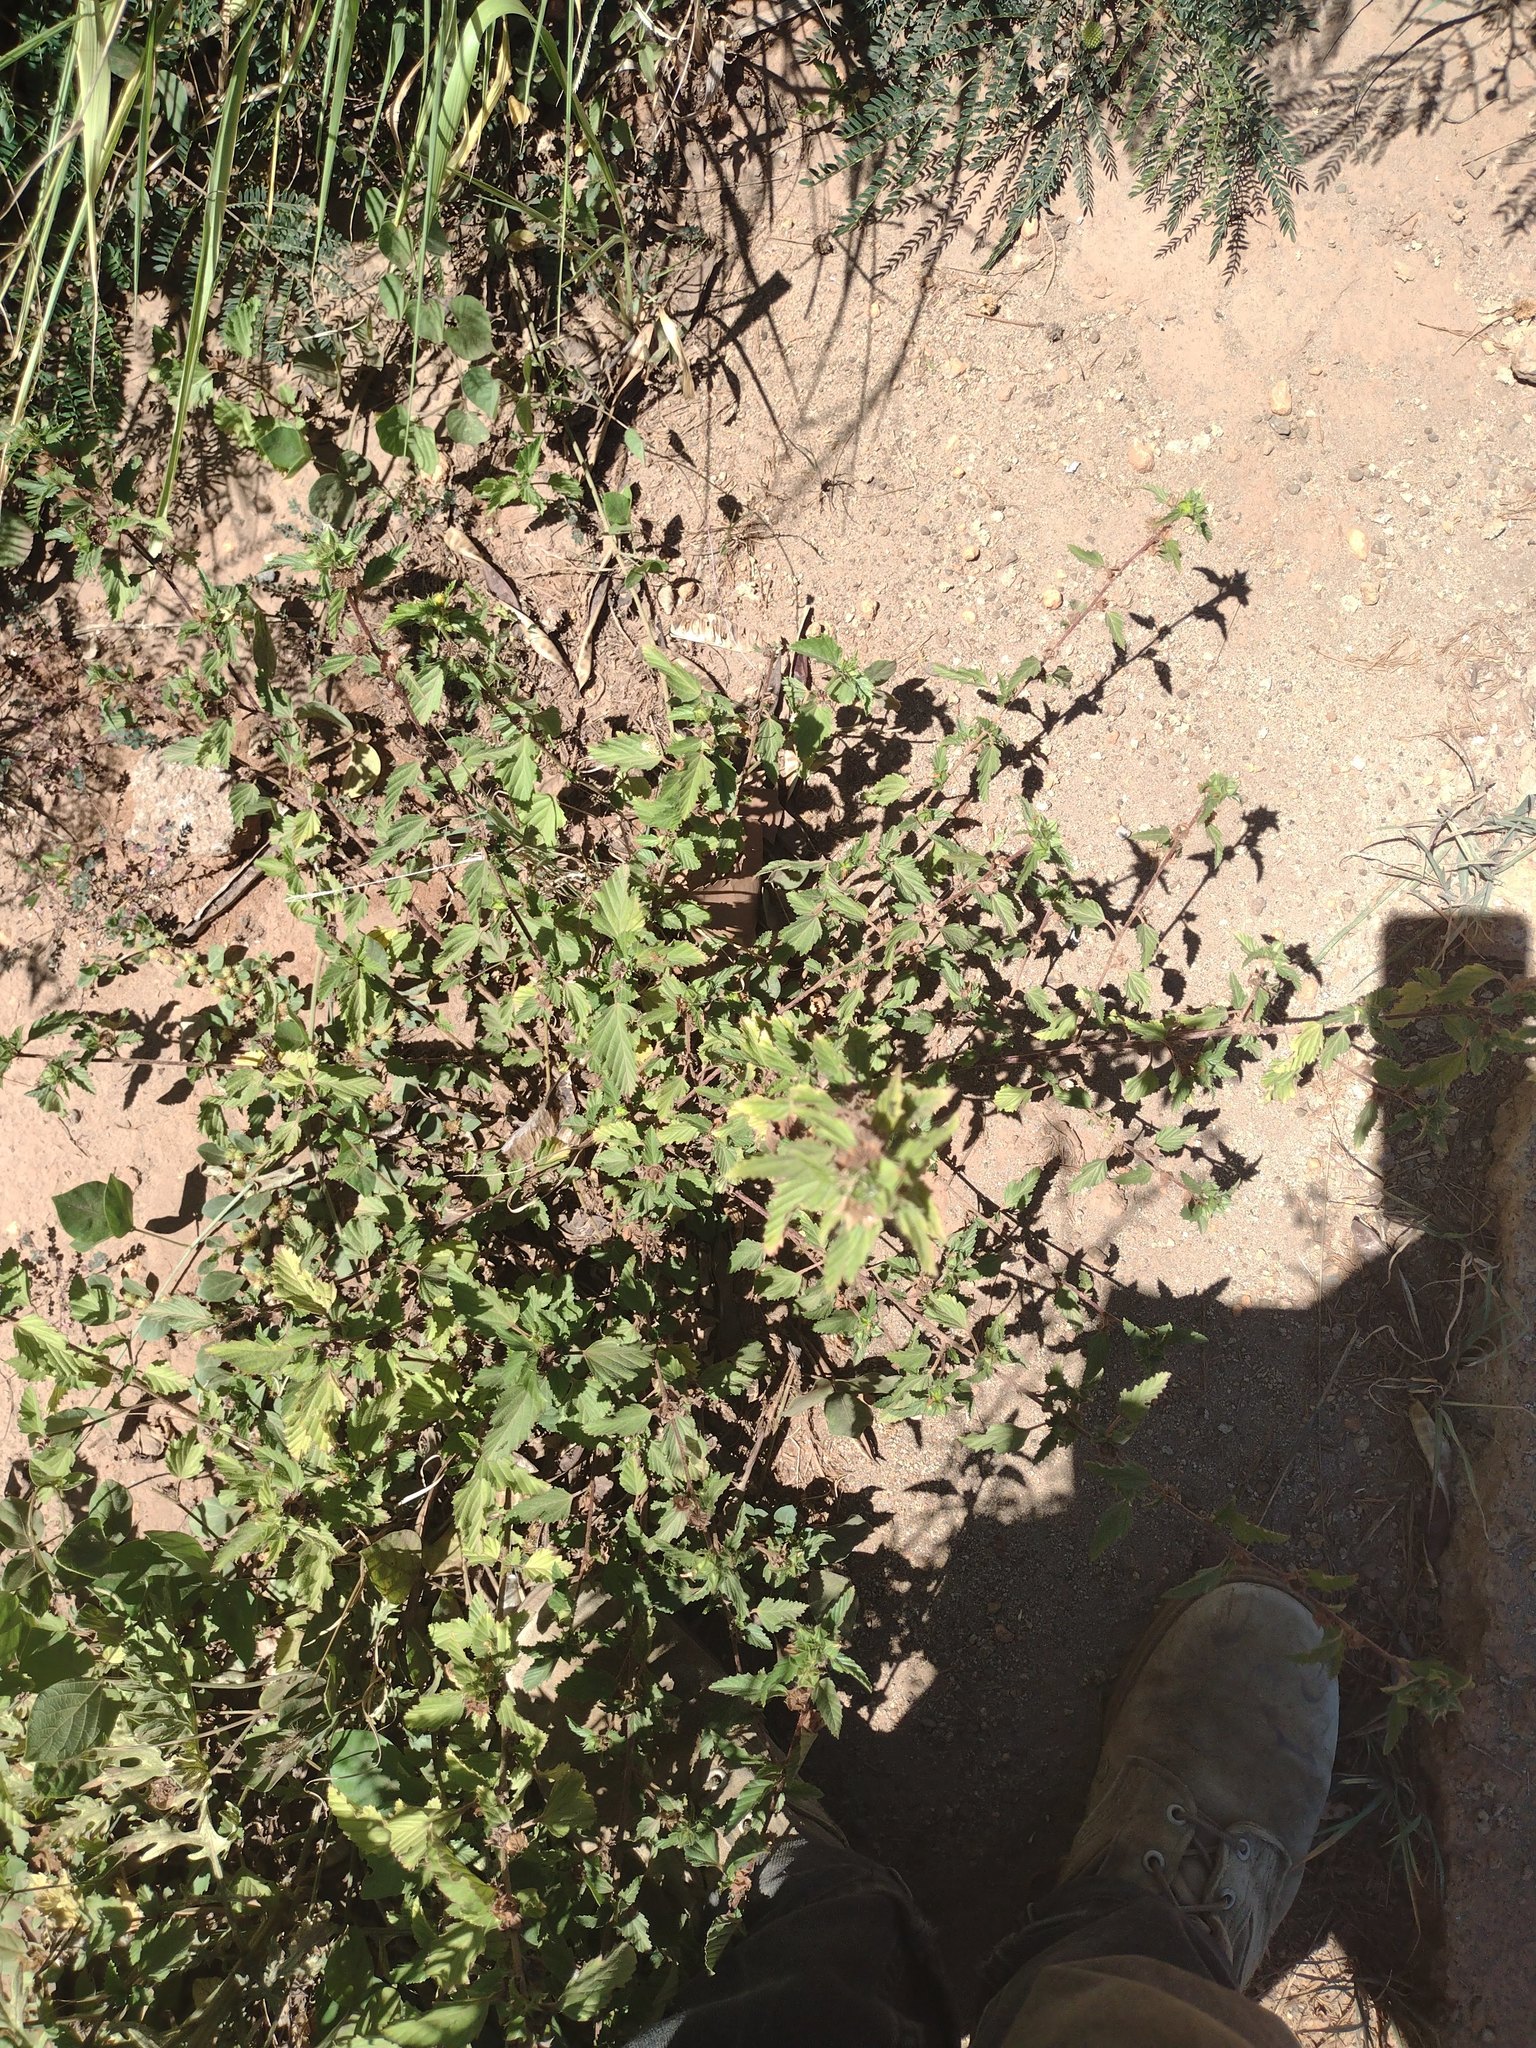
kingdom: Plantae
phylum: Tracheophyta
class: Magnoliopsida
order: Malvales
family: Malvaceae
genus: Malvastrum
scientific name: Malvastrum coromandelianum
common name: Threelobe false mallow
